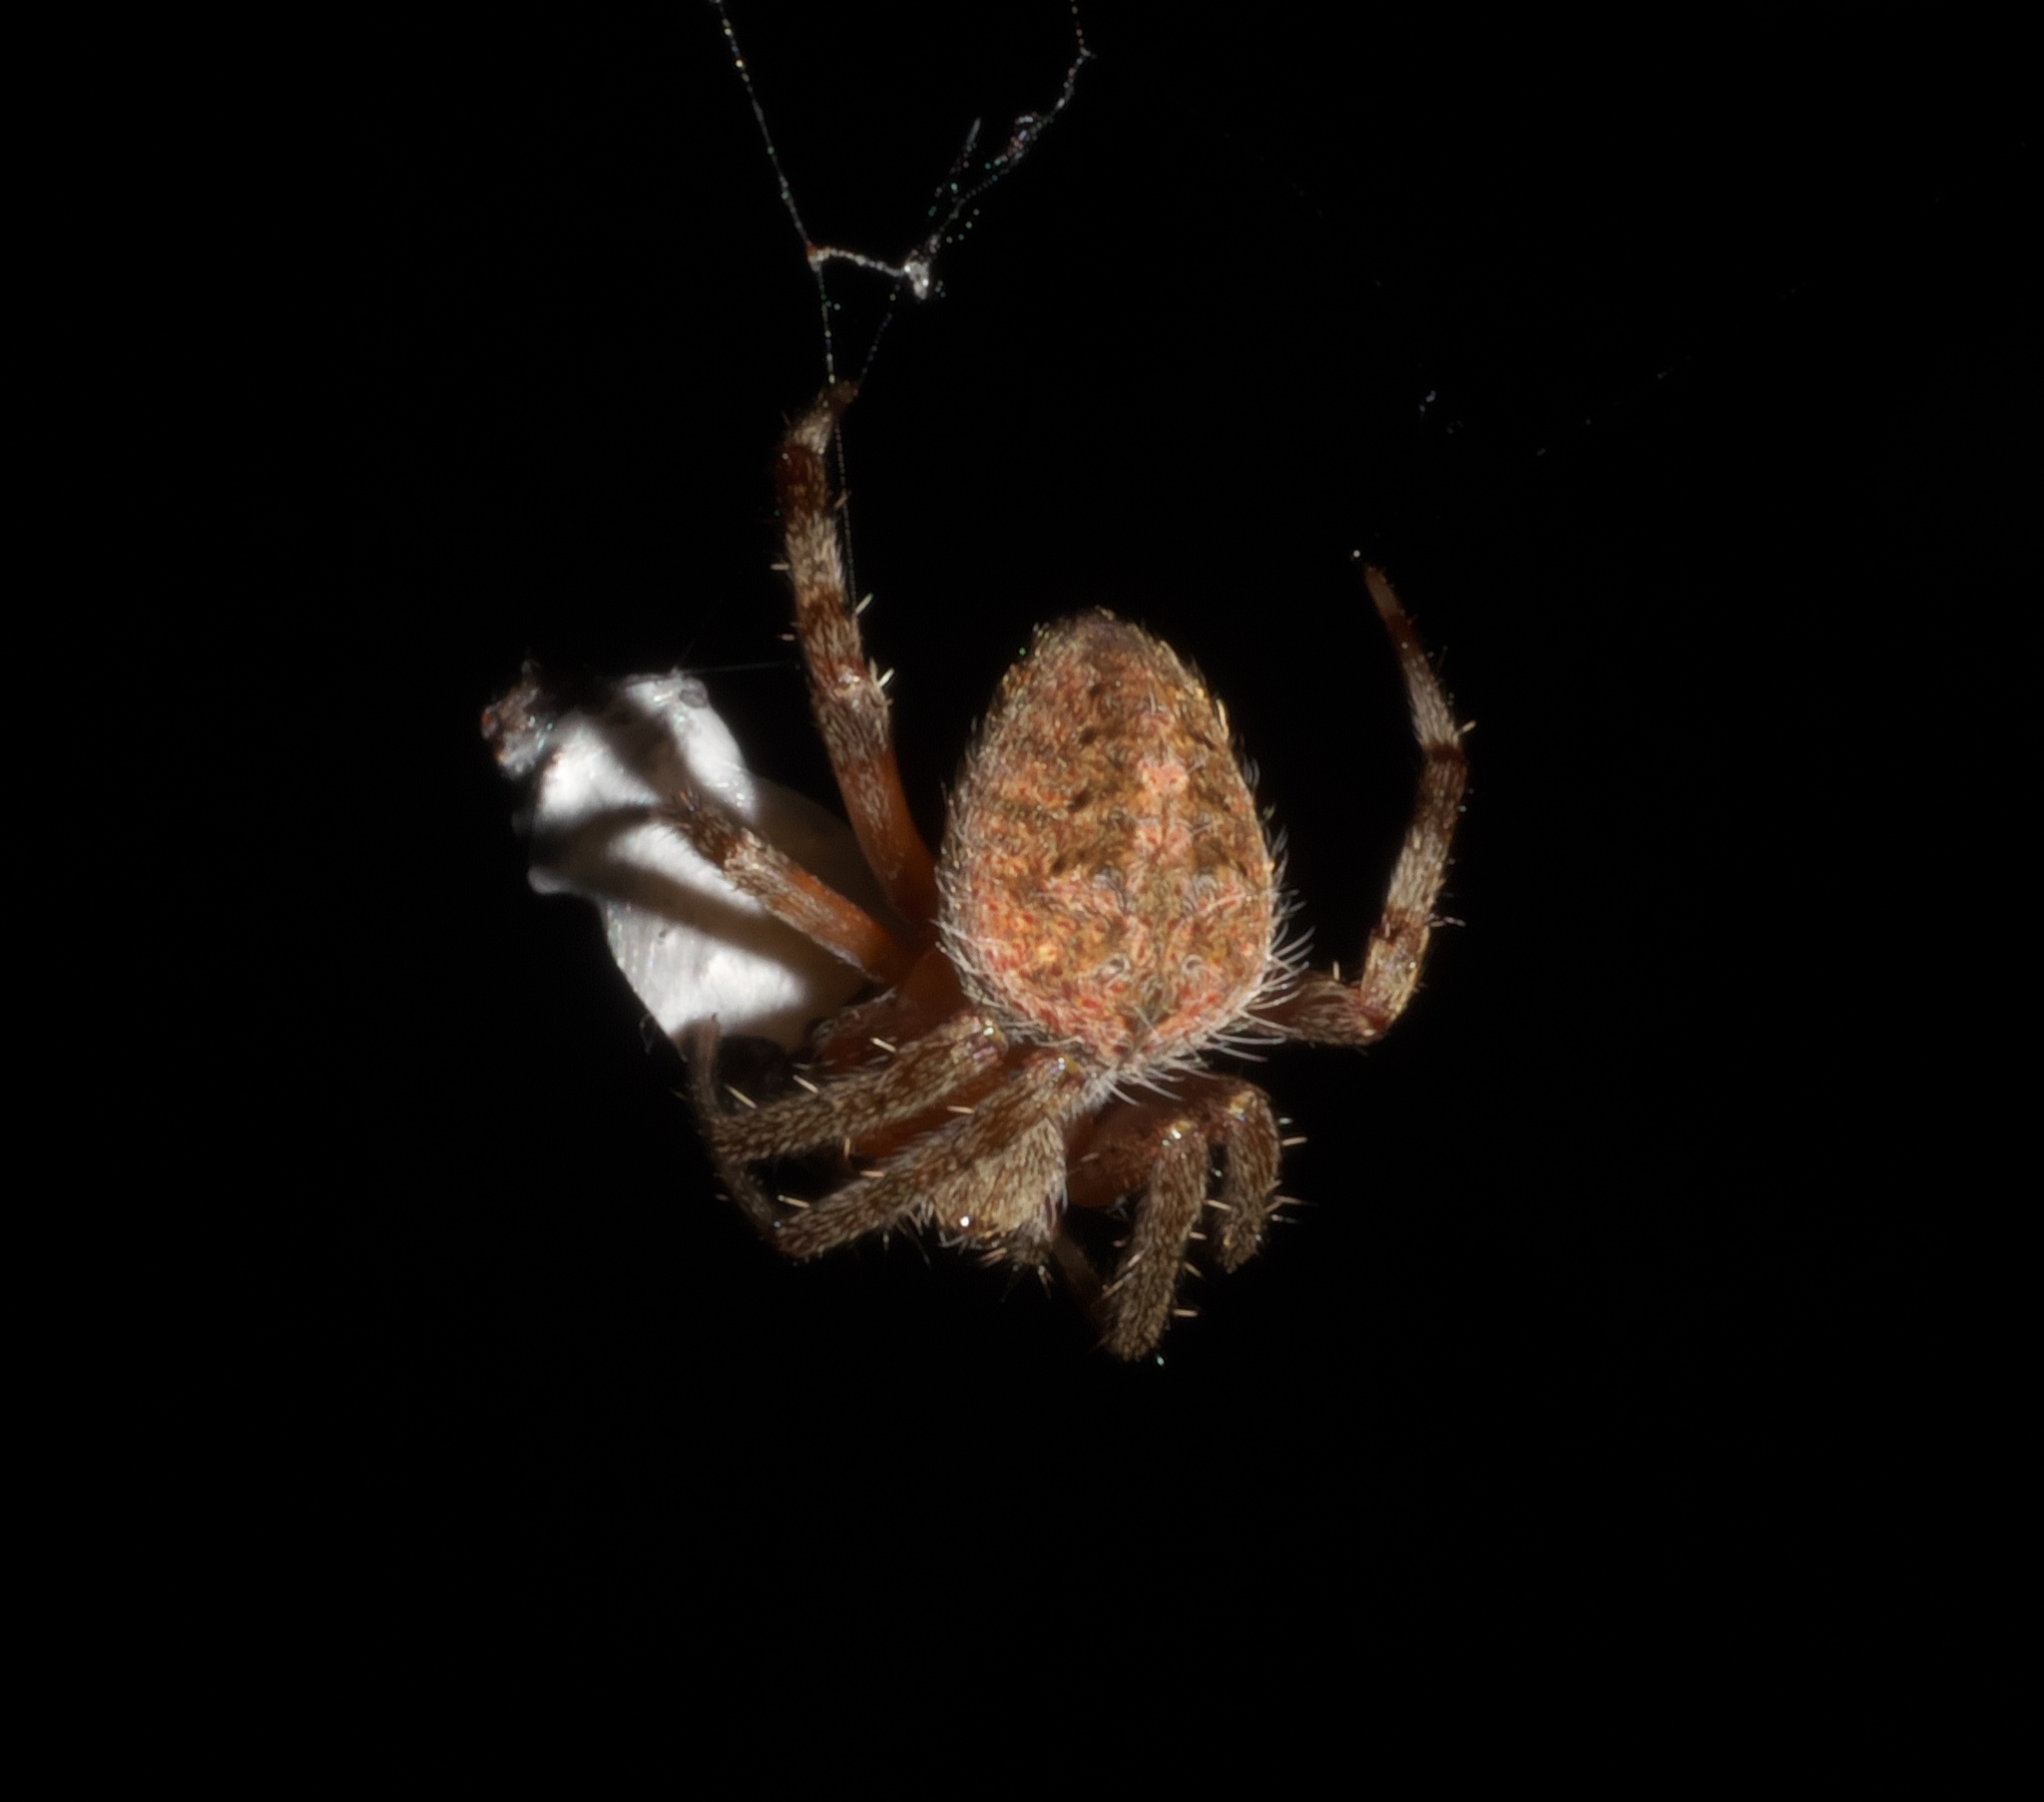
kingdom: Animalia
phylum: Arthropoda
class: Arachnida
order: Araneae
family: Araneidae
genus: Neoscona
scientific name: Neoscona arabesca
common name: Orb weavers
